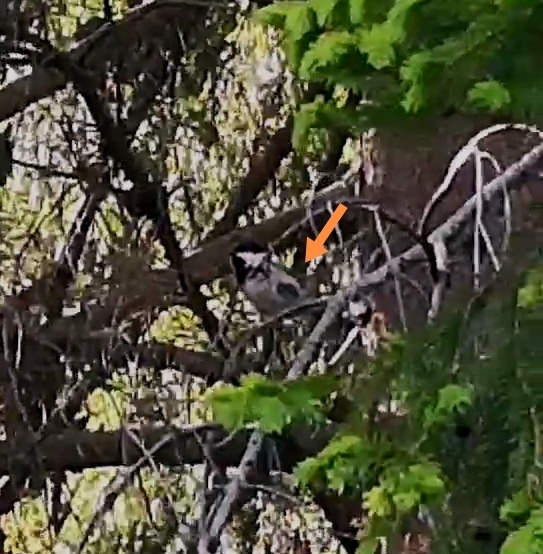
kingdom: Animalia
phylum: Chordata
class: Aves
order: Passeriformes
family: Paridae
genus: Periparus
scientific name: Periparus ater
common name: Coal tit
